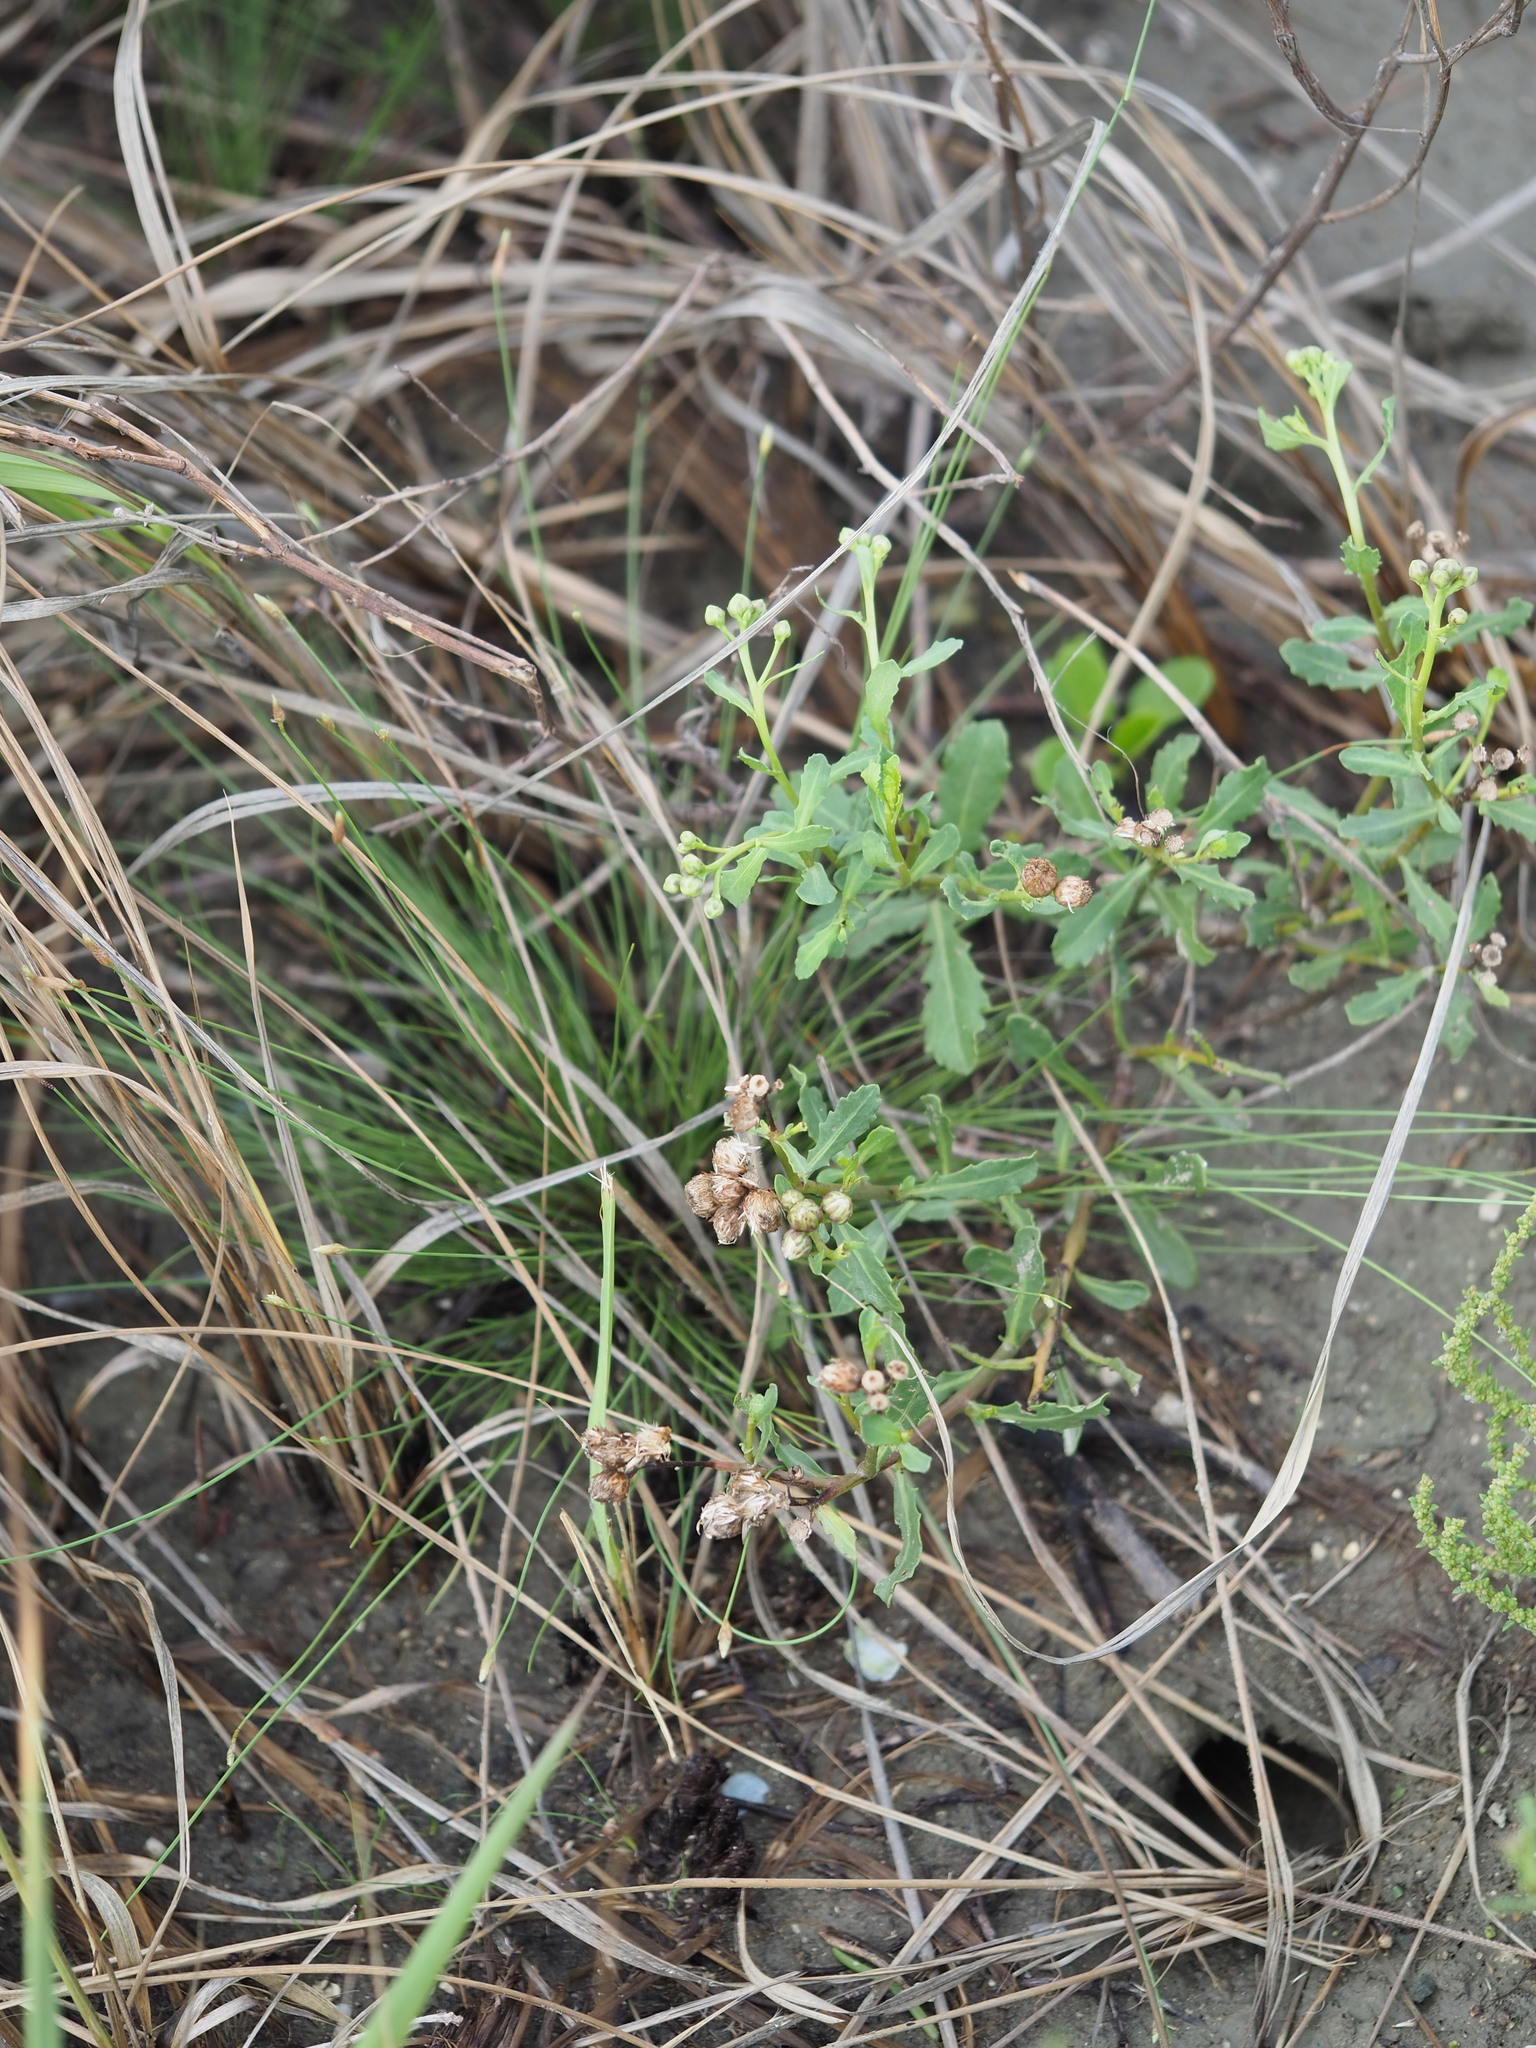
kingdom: Plantae
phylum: Tracheophyta
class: Magnoliopsida
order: Asterales
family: Asteraceae
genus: Pluchea
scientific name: Pluchea pteropoda
